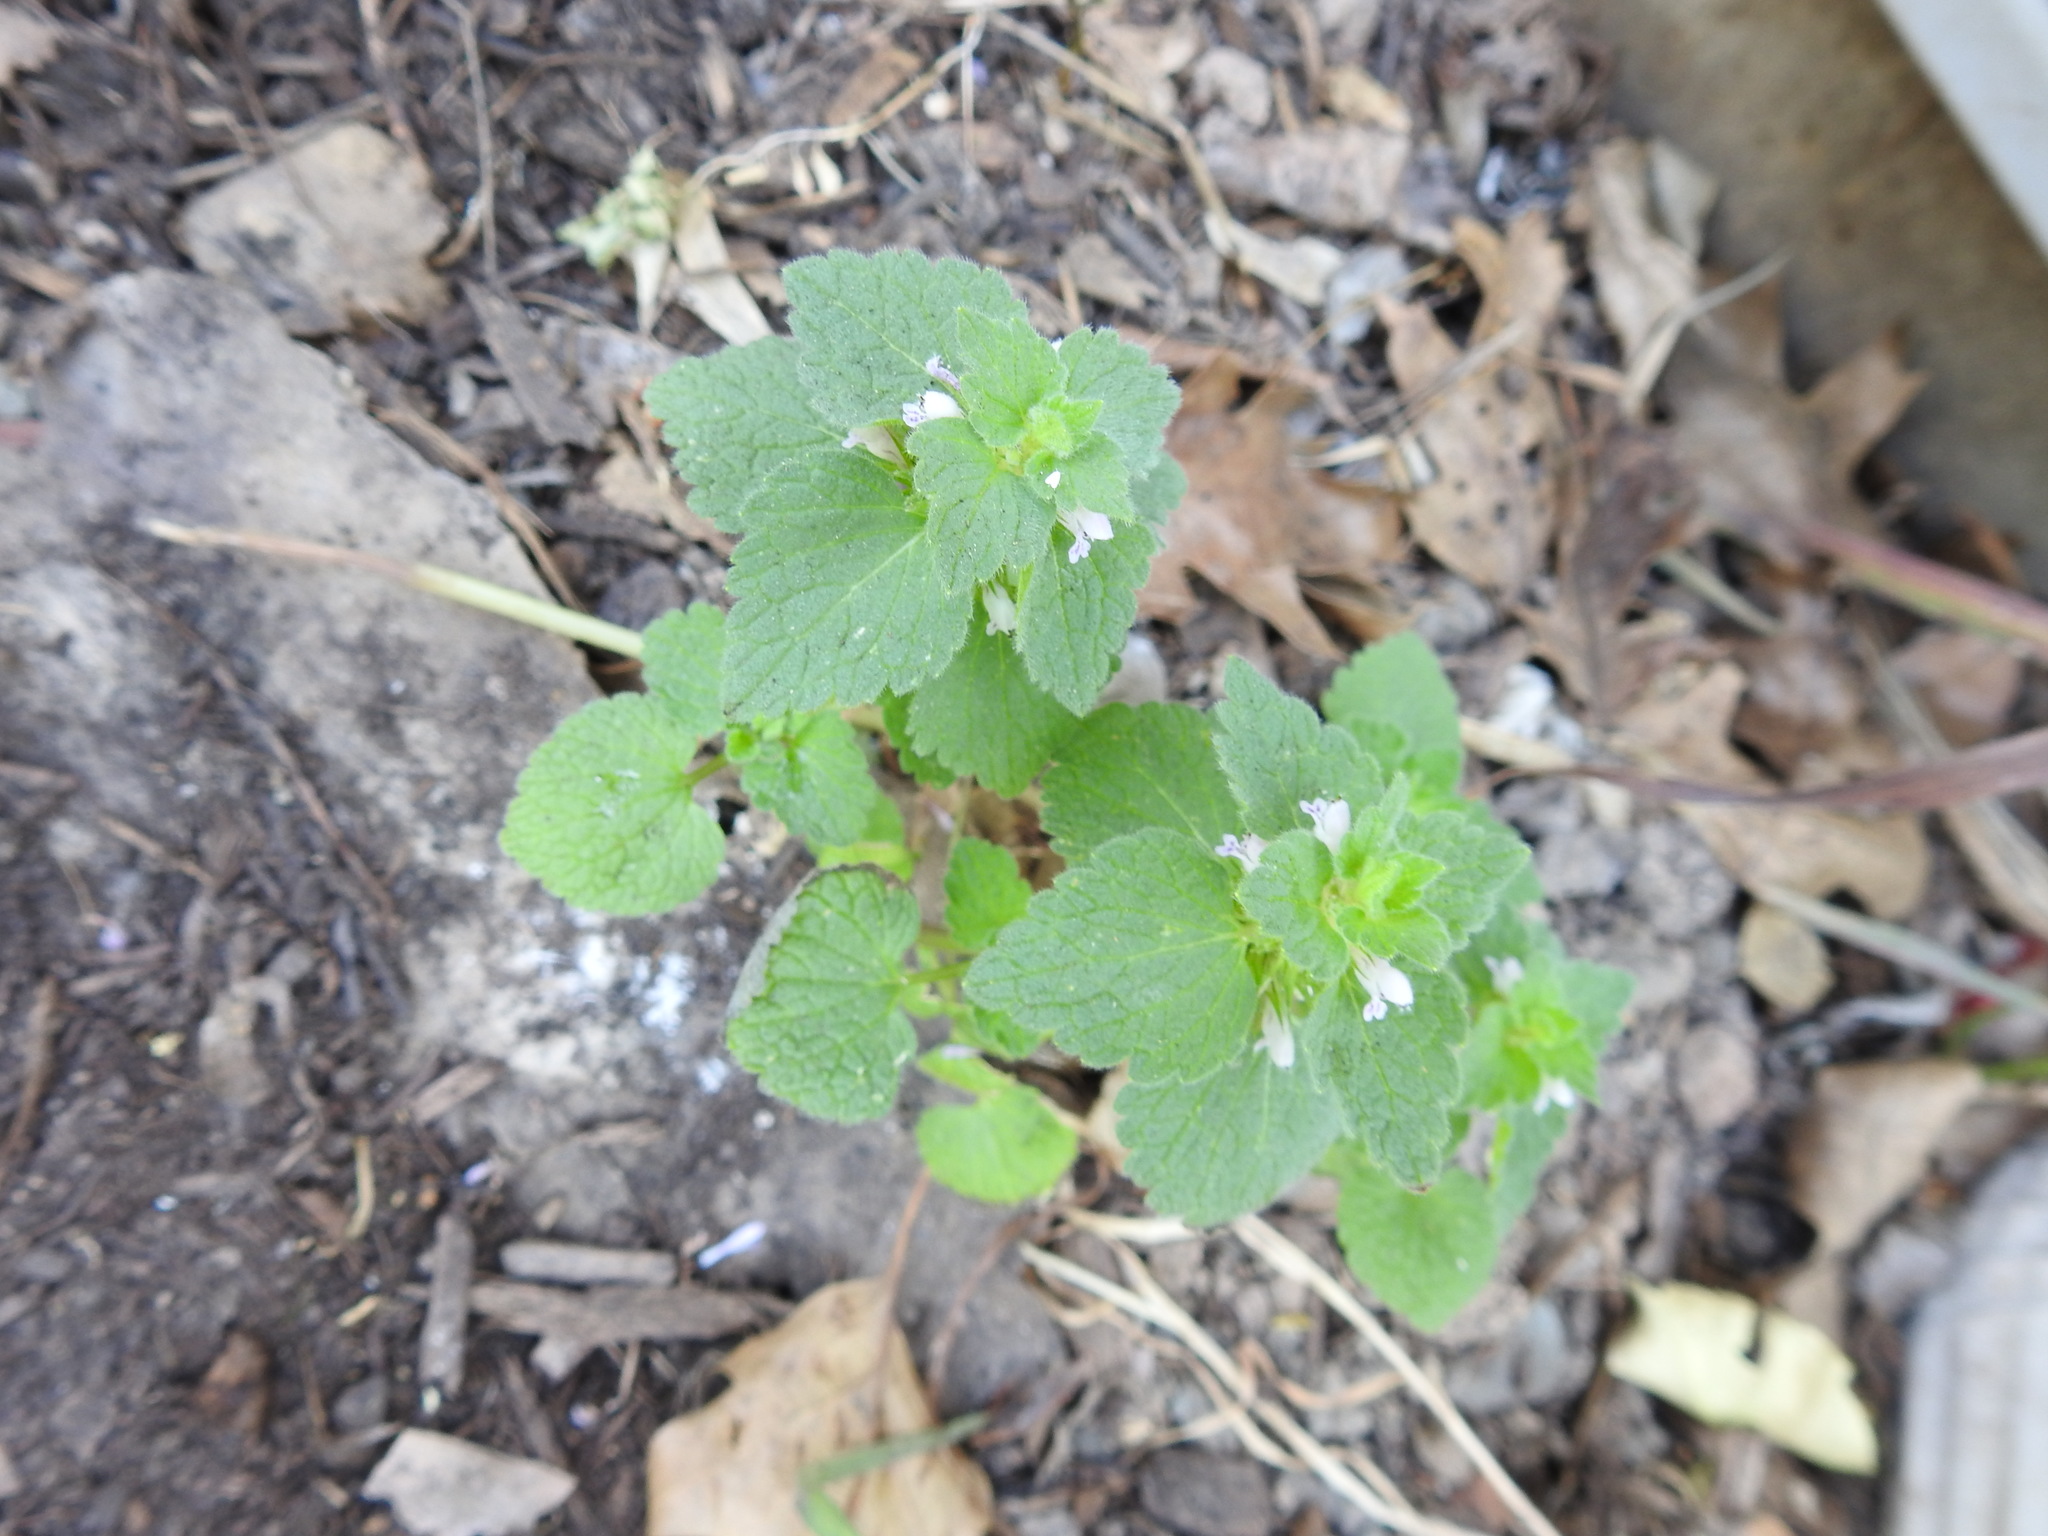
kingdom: Plantae
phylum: Tracheophyta
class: Magnoliopsida
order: Lamiales
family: Lamiaceae
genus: Lamium
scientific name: Lamium purpureum
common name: Red dead-nettle
